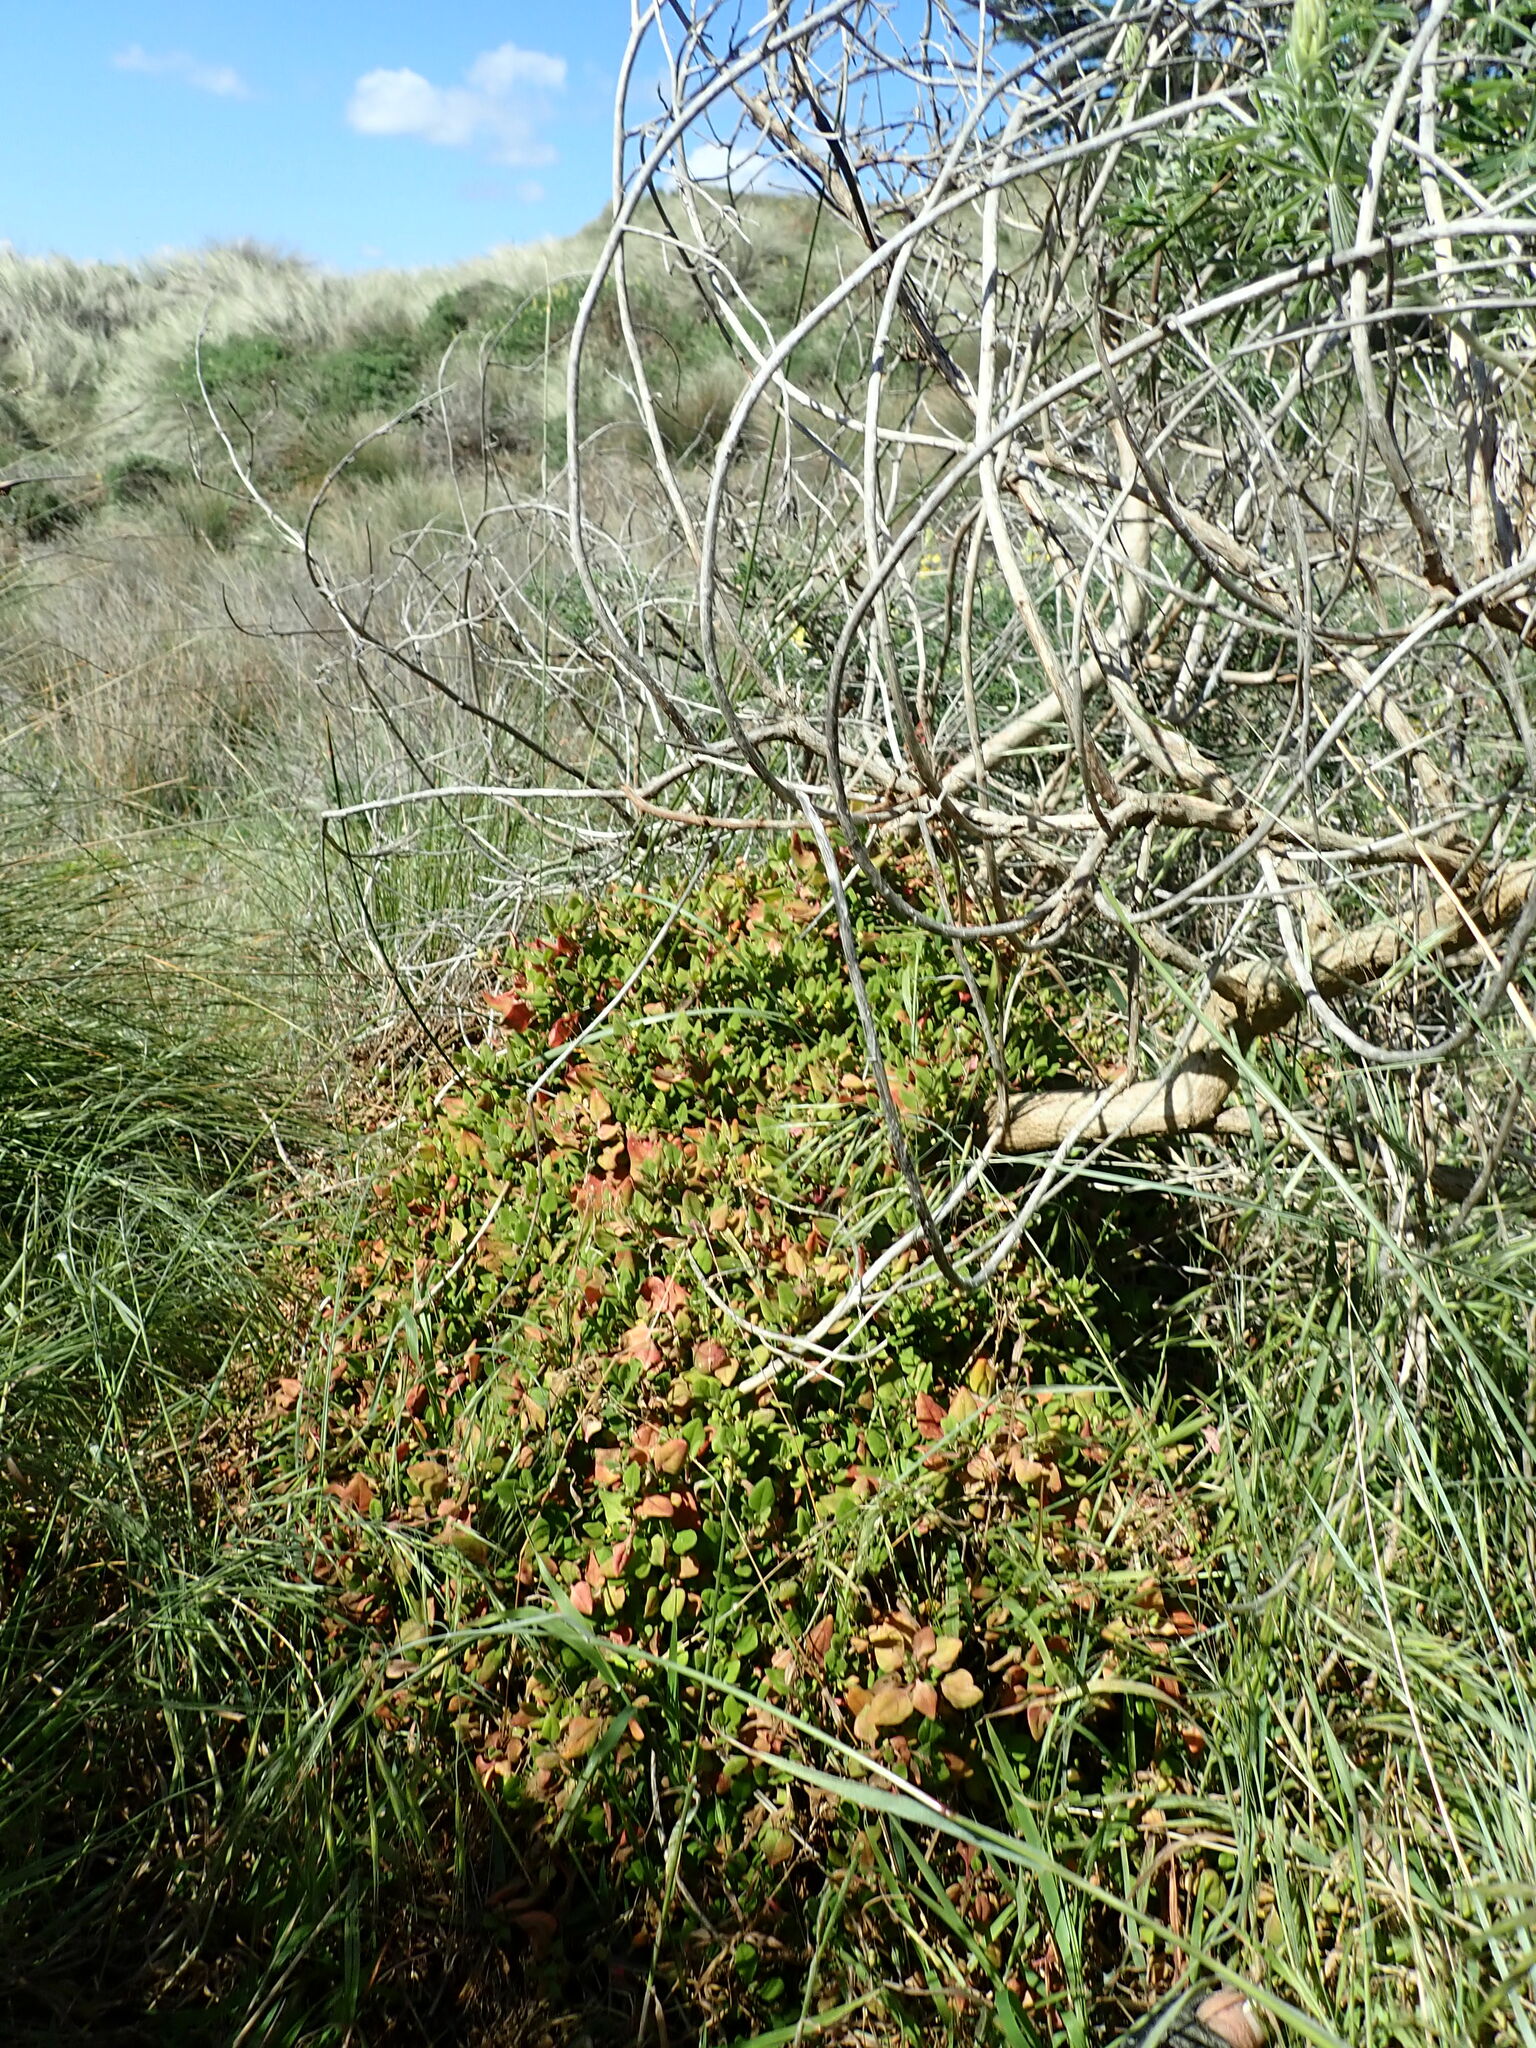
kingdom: Plantae
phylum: Tracheophyta
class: Magnoliopsida
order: Caryophyllales
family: Aizoaceae
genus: Tetragonia
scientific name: Tetragonia implexicoma
